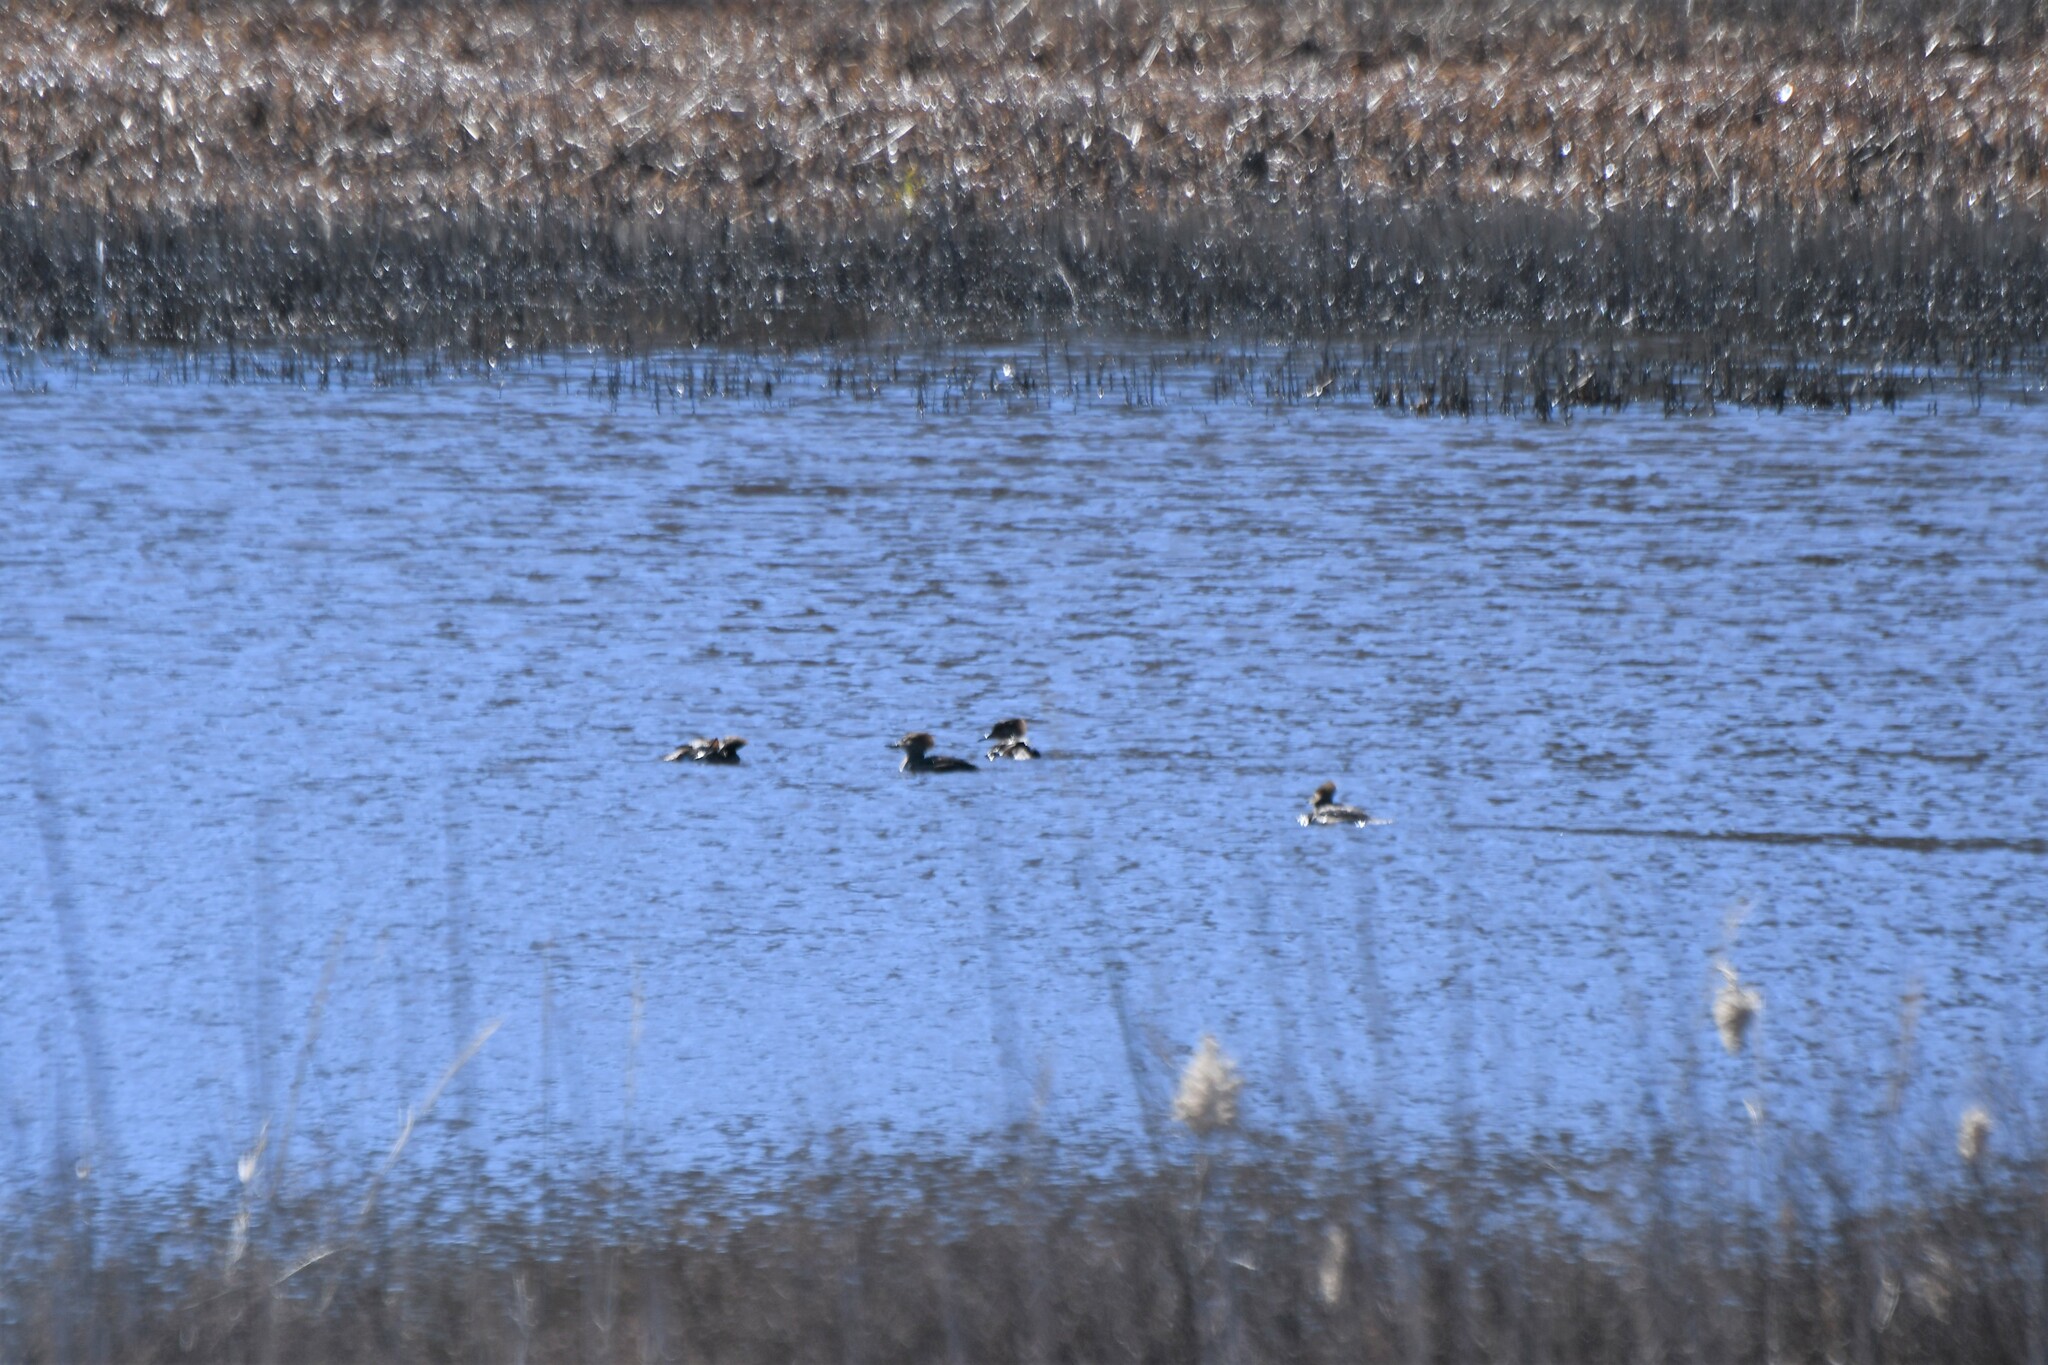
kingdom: Animalia
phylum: Chordata
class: Aves
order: Anseriformes
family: Anatidae
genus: Lophodytes
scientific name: Lophodytes cucullatus
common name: Hooded merganser
